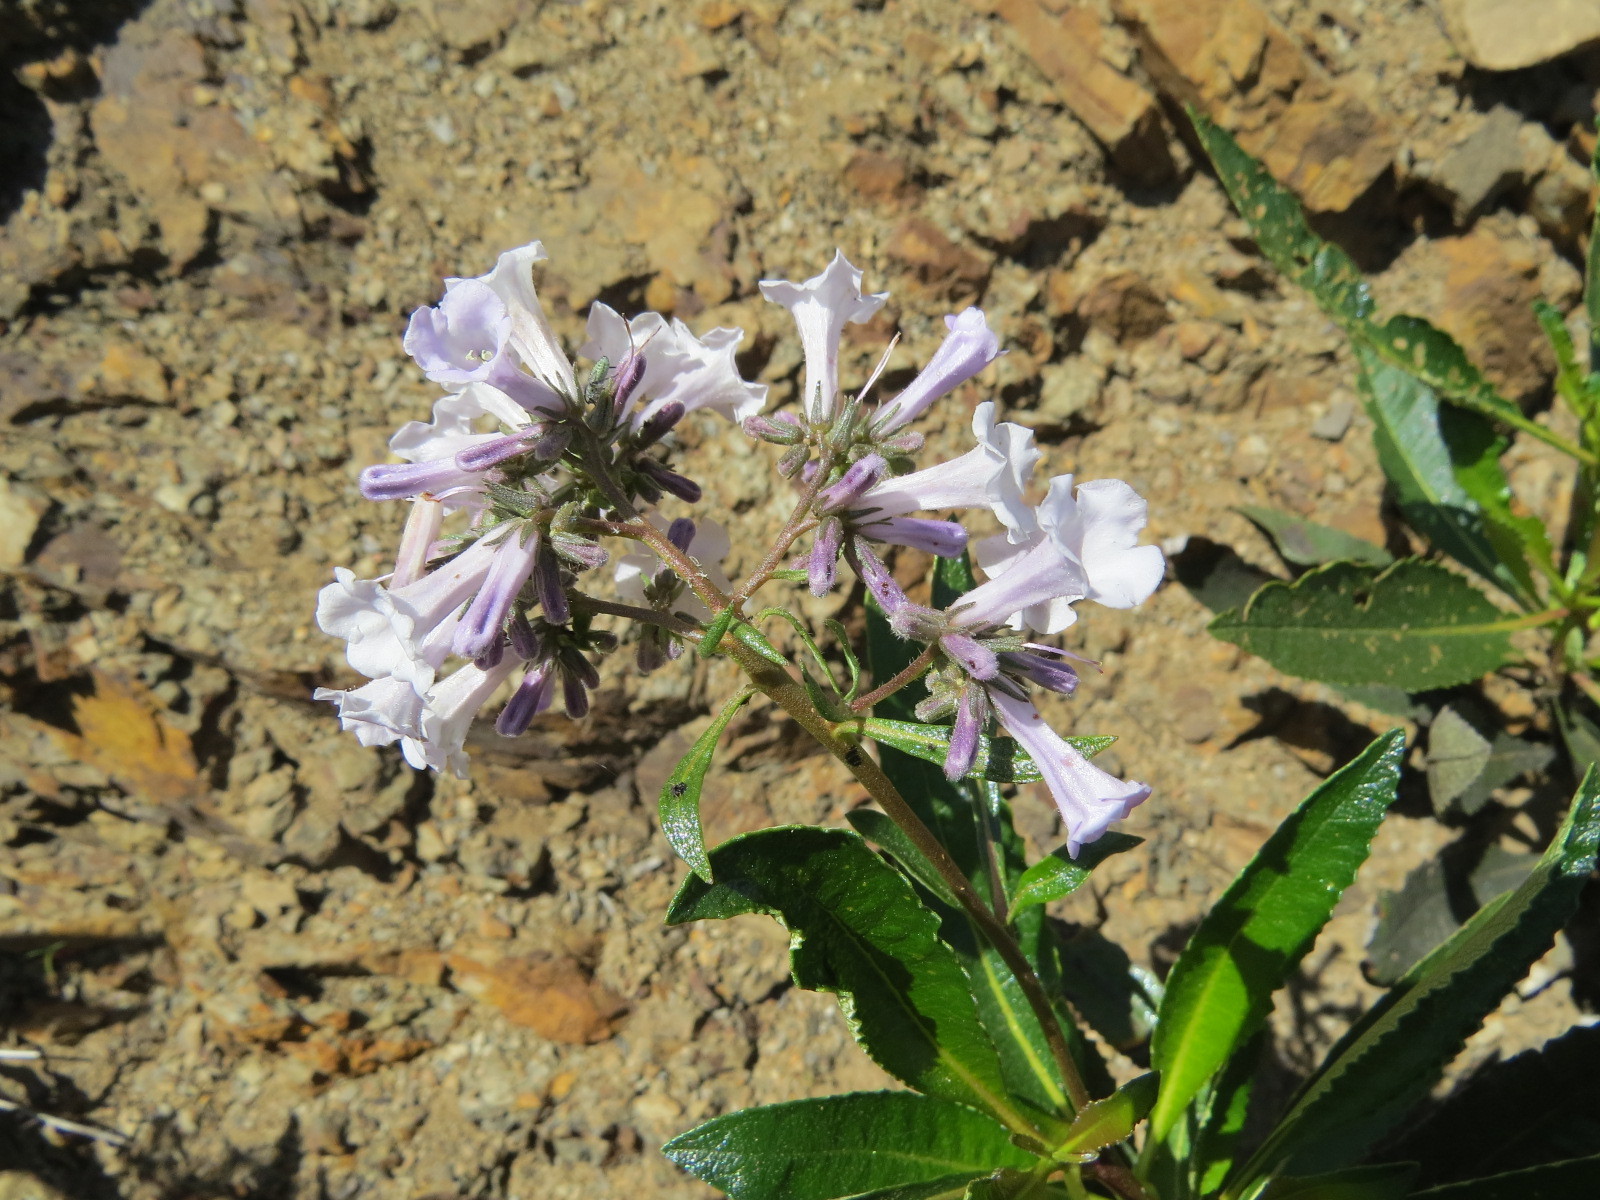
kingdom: Plantae
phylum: Tracheophyta
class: Magnoliopsida
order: Boraginales
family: Namaceae
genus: Eriodictyon
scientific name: Eriodictyon californicum
